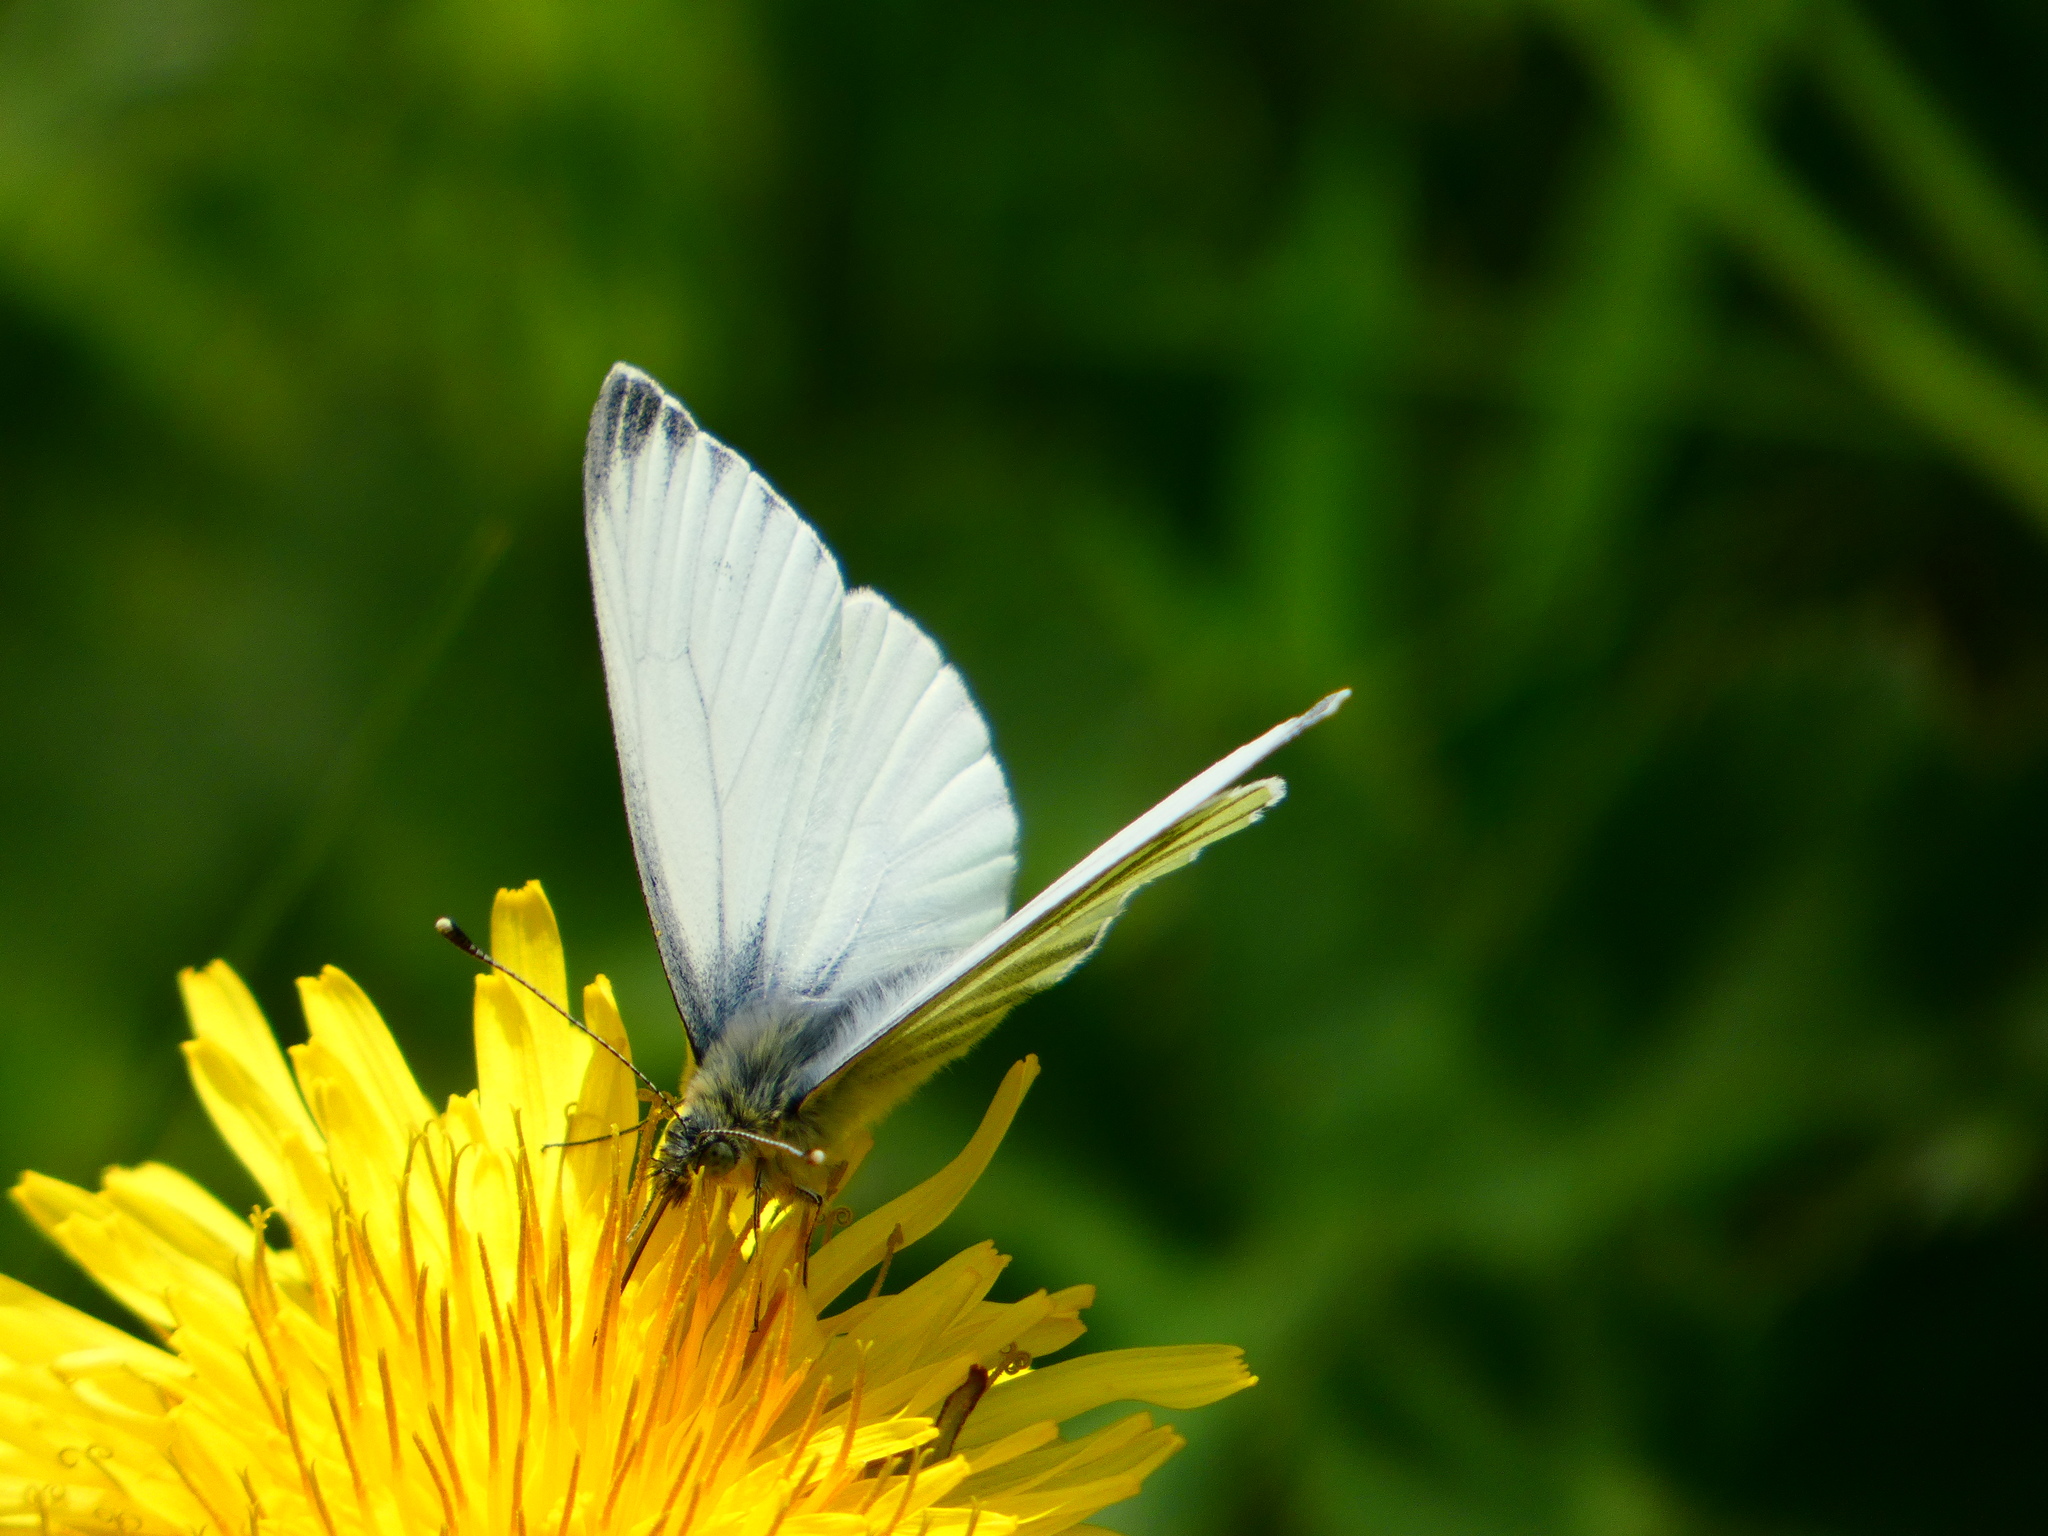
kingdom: Animalia
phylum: Arthropoda
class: Insecta
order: Lepidoptera
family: Pieridae
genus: Pieris
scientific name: Pieris napi
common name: Green-veined white
